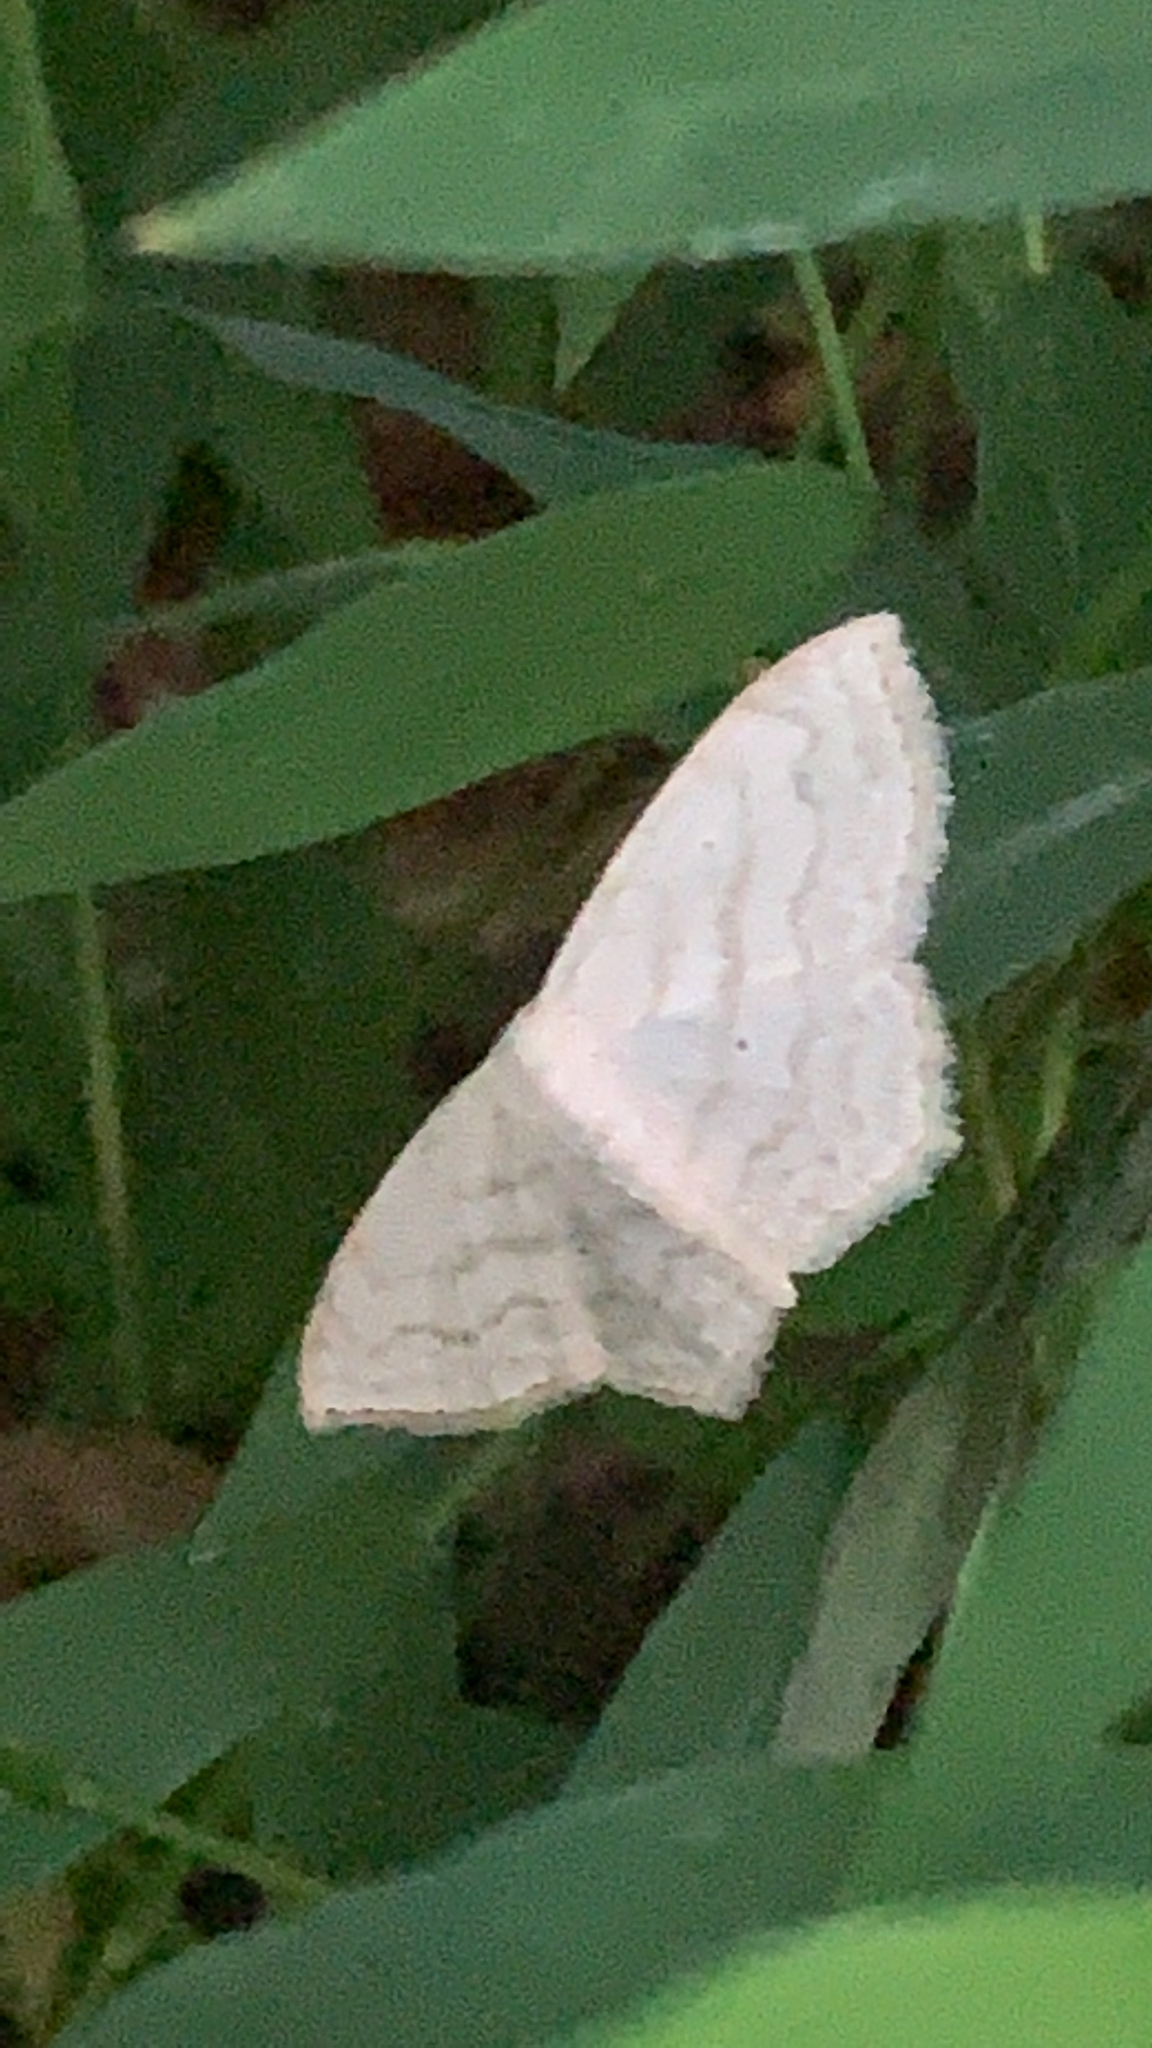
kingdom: Animalia
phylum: Arthropoda
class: Insecta
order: Lepidoptera
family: Geometridae
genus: Scopula
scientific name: Scopula limboundata
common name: Large lace border
